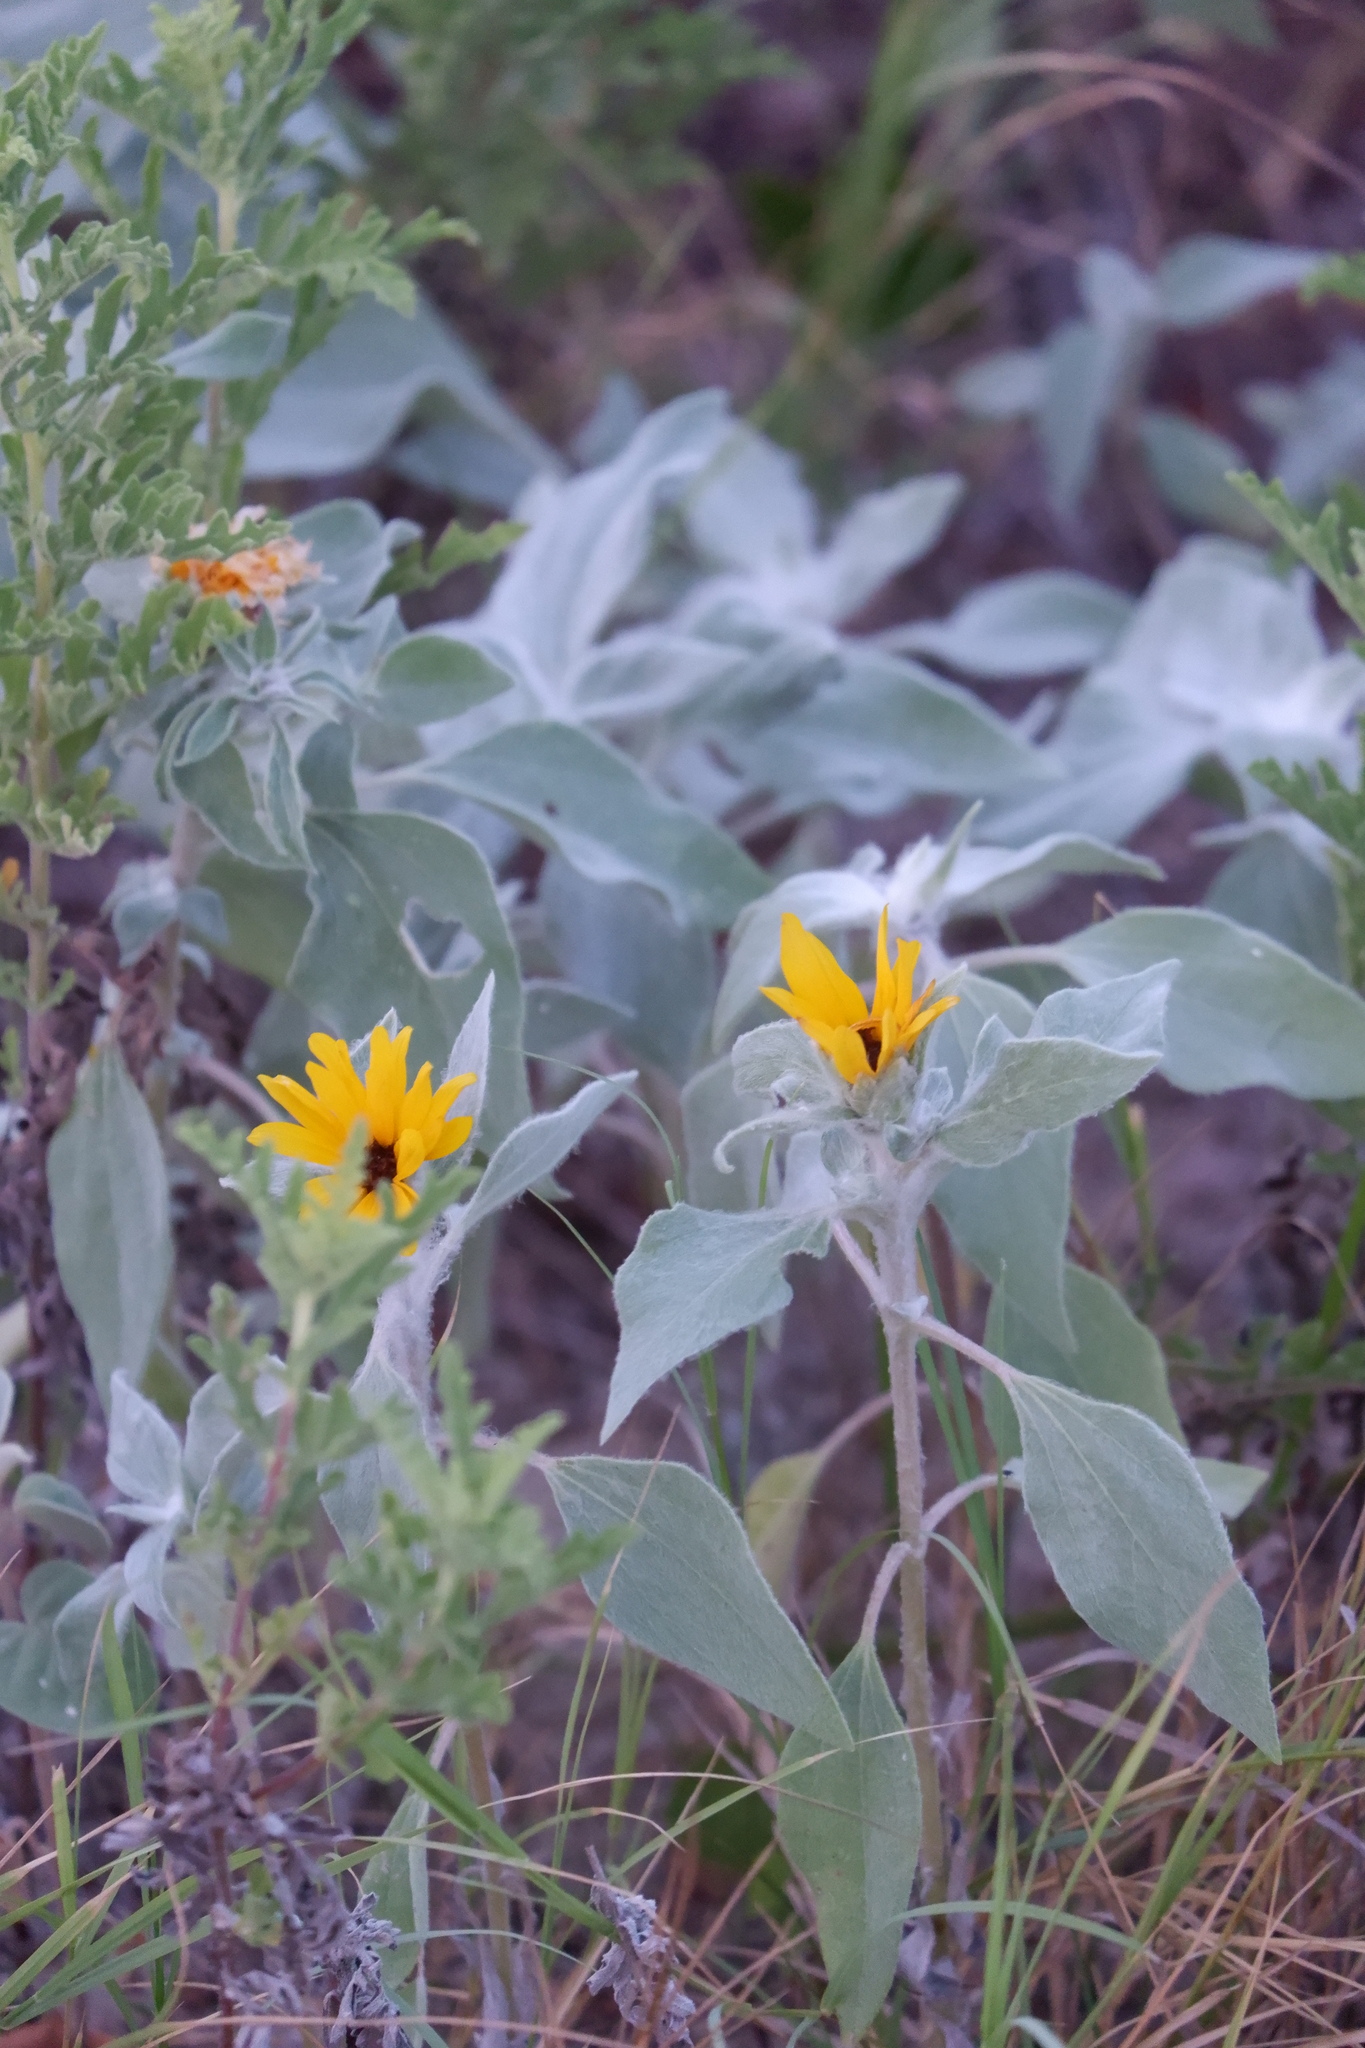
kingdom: Plantae
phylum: Tracheophyta
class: Magnoliopsida
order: Asterales
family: Asteraceae
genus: Helianthus
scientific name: Helianthus argophyllus
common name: Silverleaf sunflower
